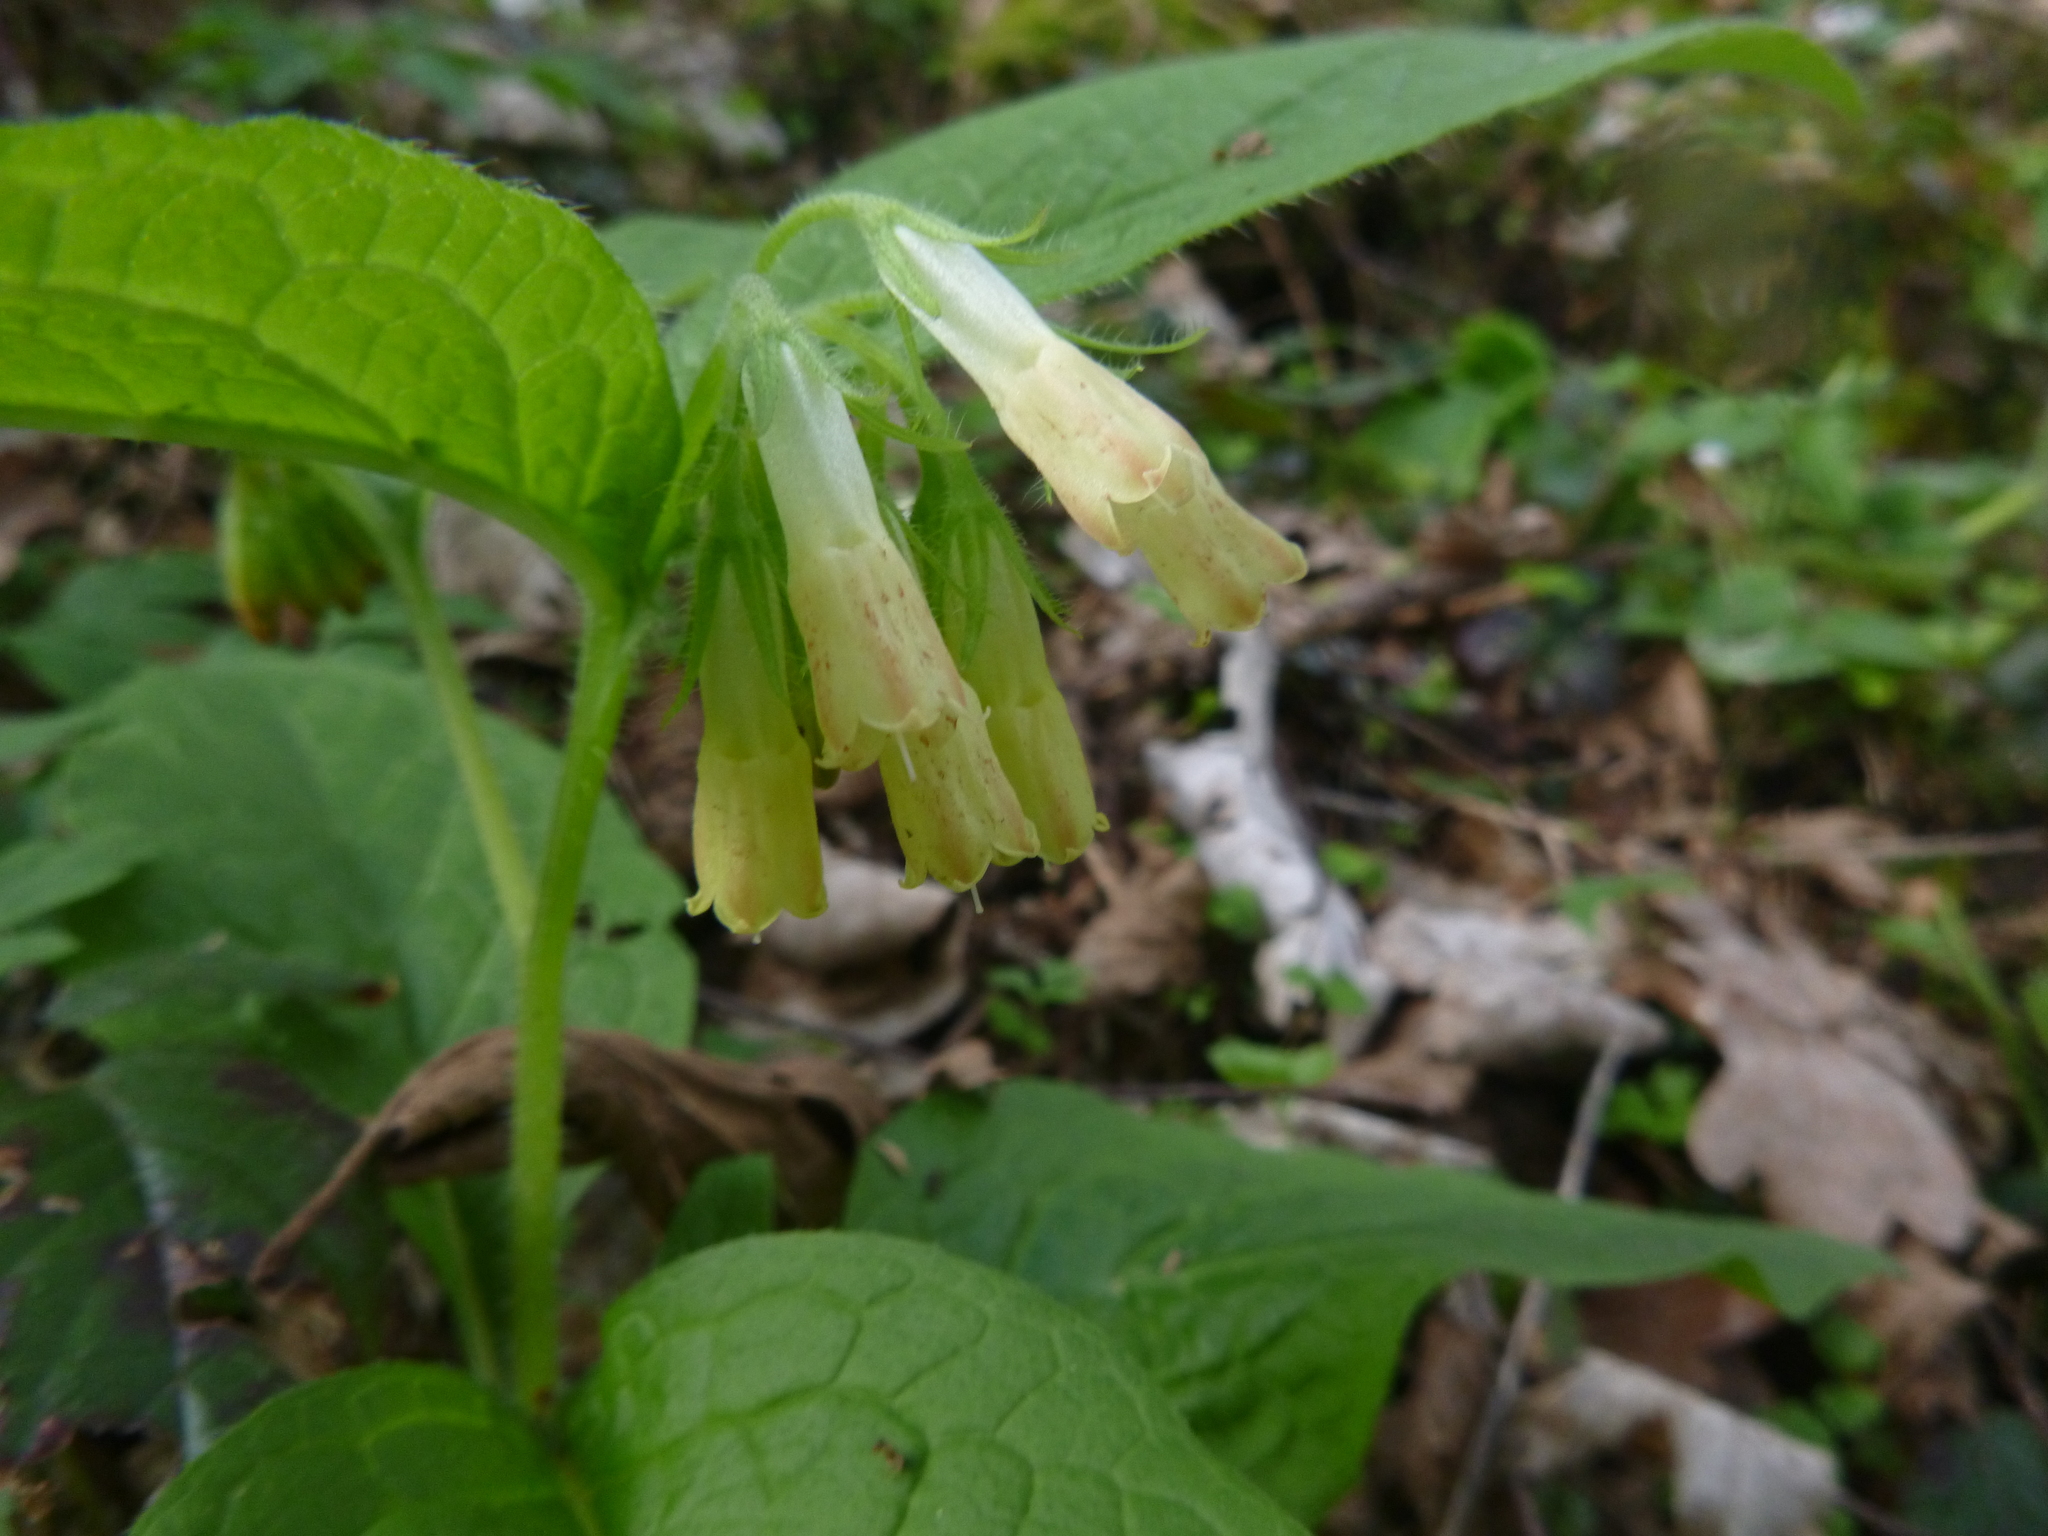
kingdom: Plantae
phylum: Tracheophyta
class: Magnoliopsida
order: Boraginales
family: Boraginaceae
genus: Symphytum
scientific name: Symphytum tuberosum
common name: Tuberous comfrey
